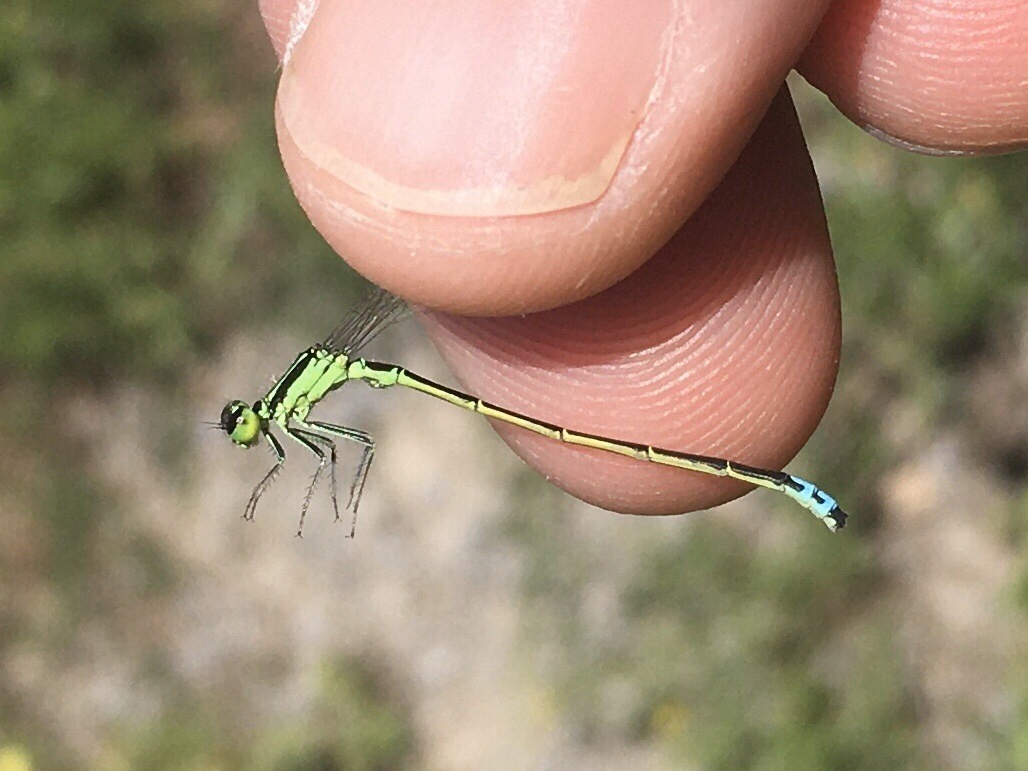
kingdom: Animalia
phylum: Arthropoda
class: Insecta
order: Odonata
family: Coenagrionidae
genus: Ischnura
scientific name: Ischnura verticalis
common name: Eastern forktail
